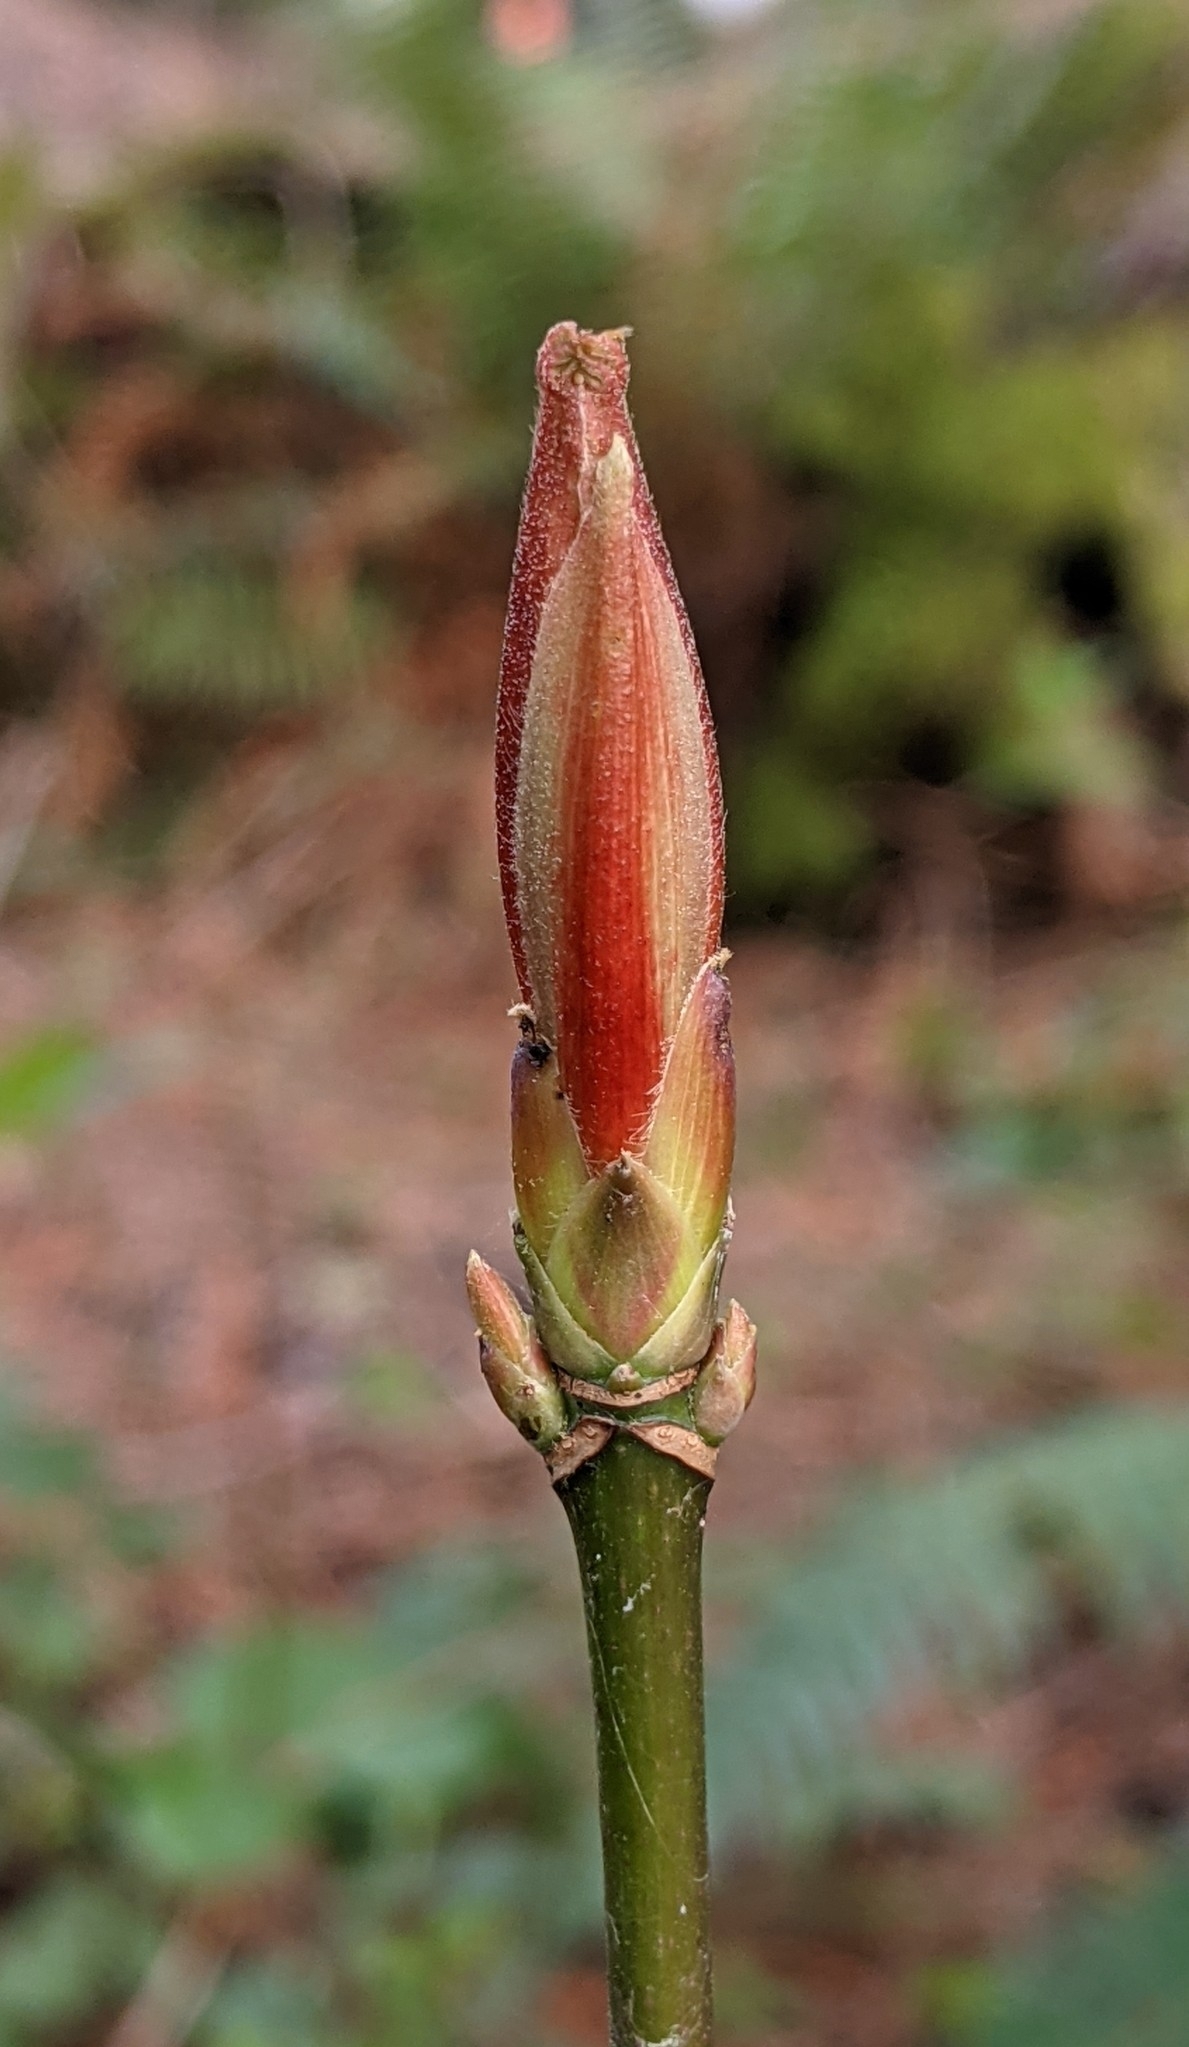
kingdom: Plantae
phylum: Tracheophyta
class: Magnoliopsida
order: Sapindales
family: Sapindaceae
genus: Acer
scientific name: Acer macrophyllum
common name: Oregon maple
